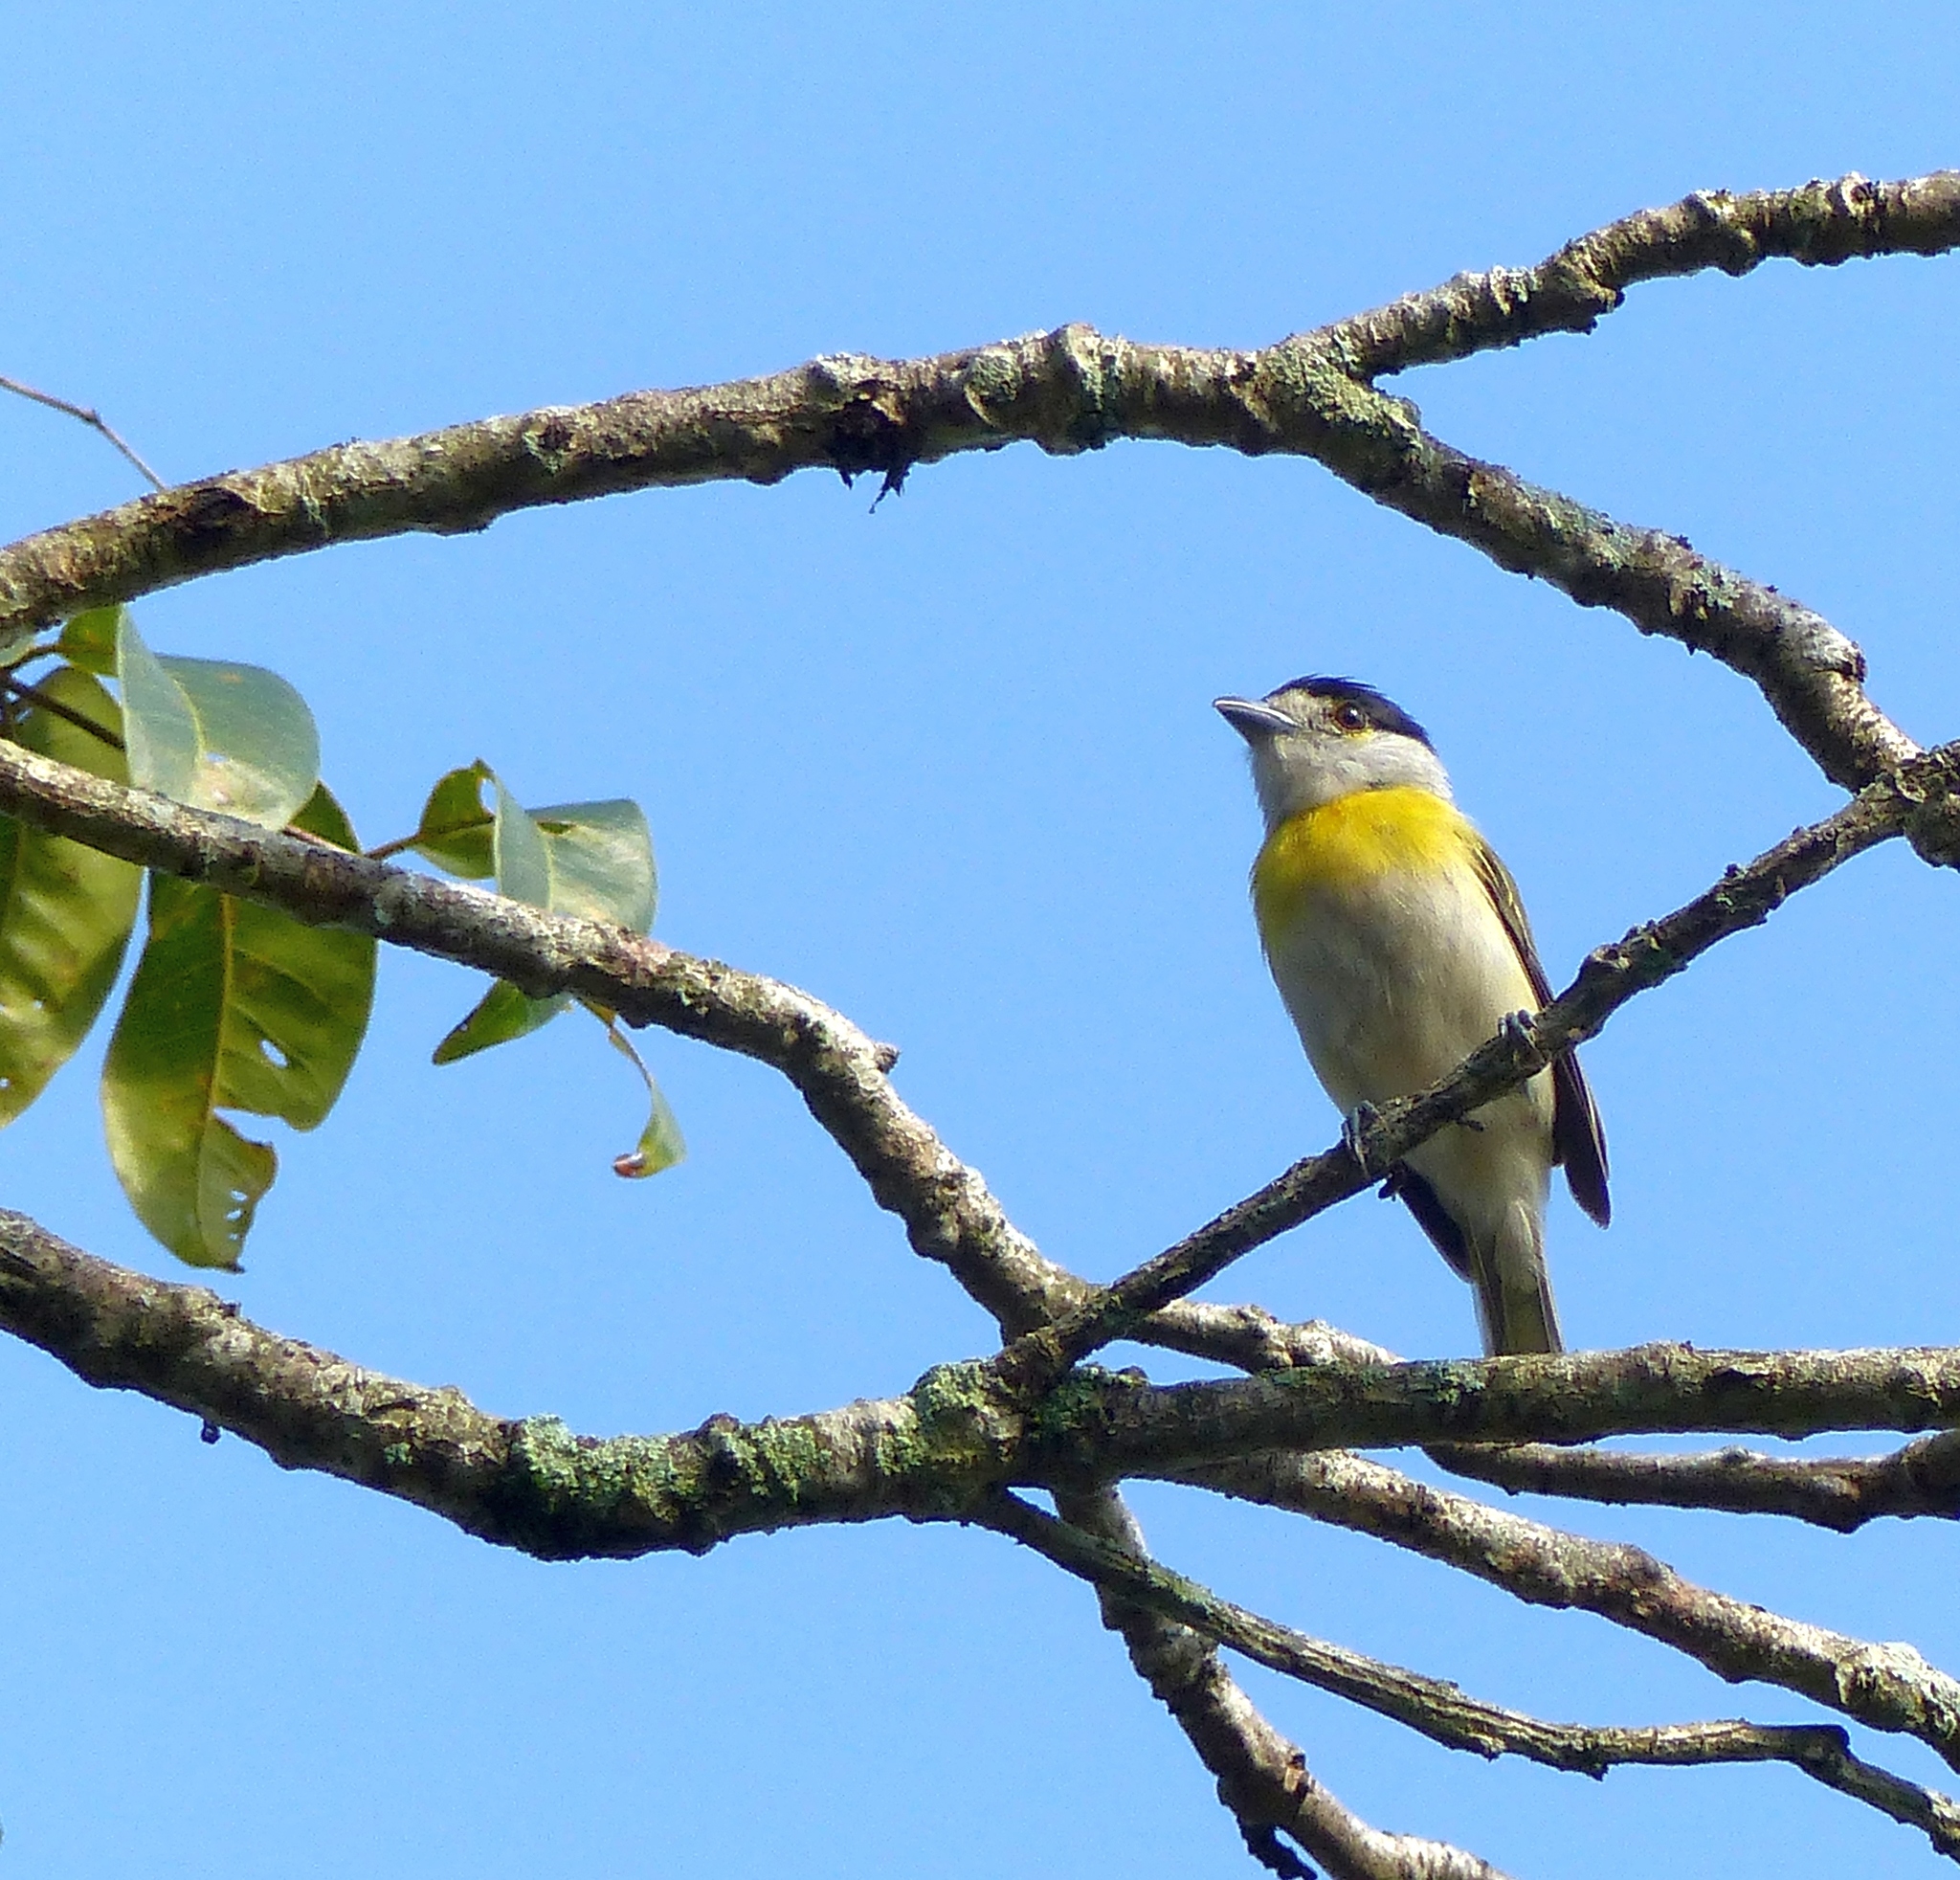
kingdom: Animalia
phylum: Chordata
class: Aves
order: Passeriformes
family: Cotingidae
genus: Pachyramphus
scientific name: Pachyramphus viridis
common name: Green-backed becard
